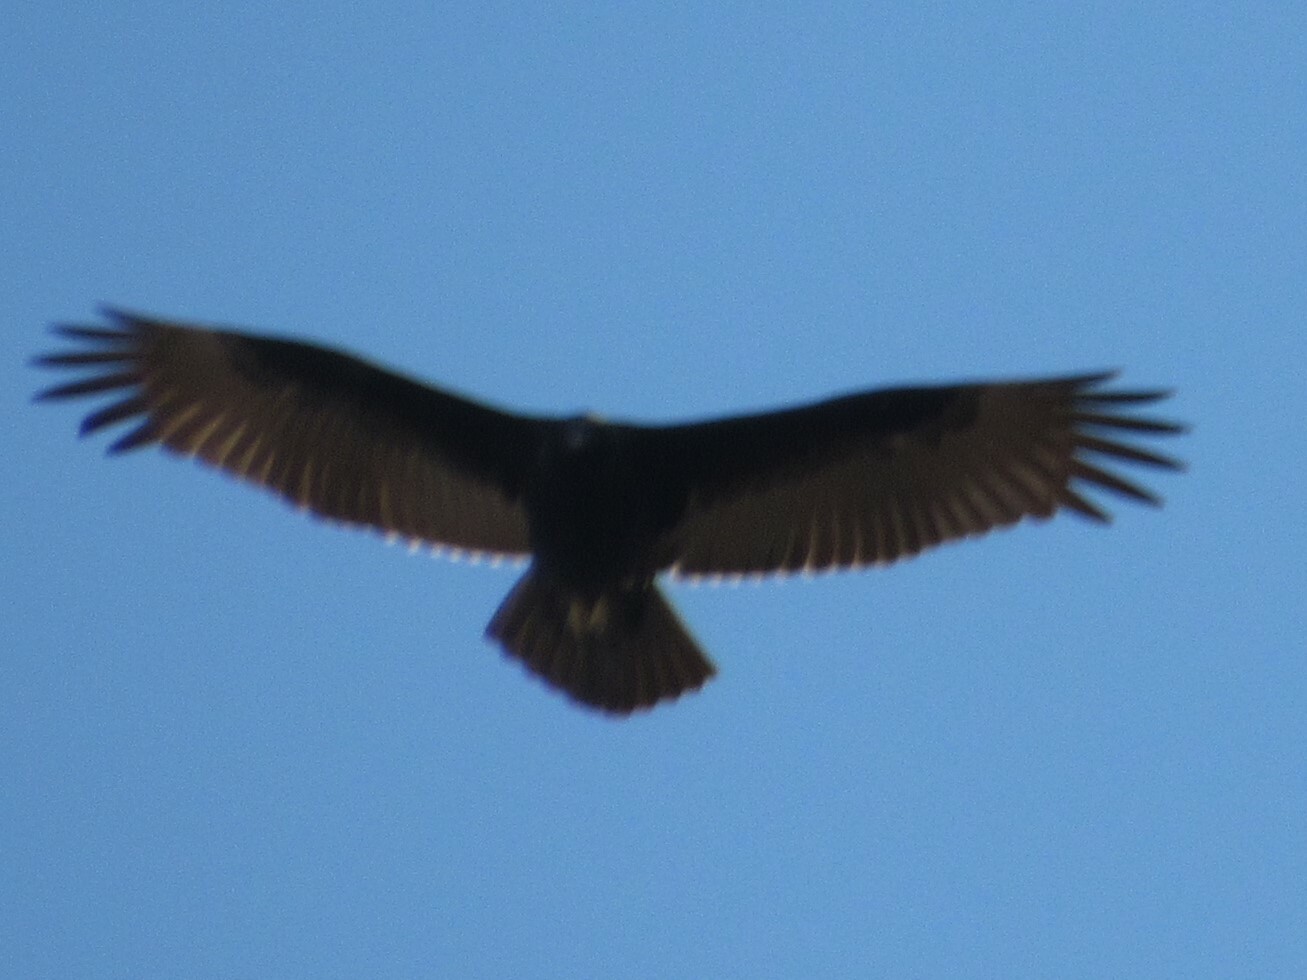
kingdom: Animalia
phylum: Chordata
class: Aves
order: Accipitriformes
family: Cathartidae
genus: Cathartes
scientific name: Cathartes aura
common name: Turkey vulture
